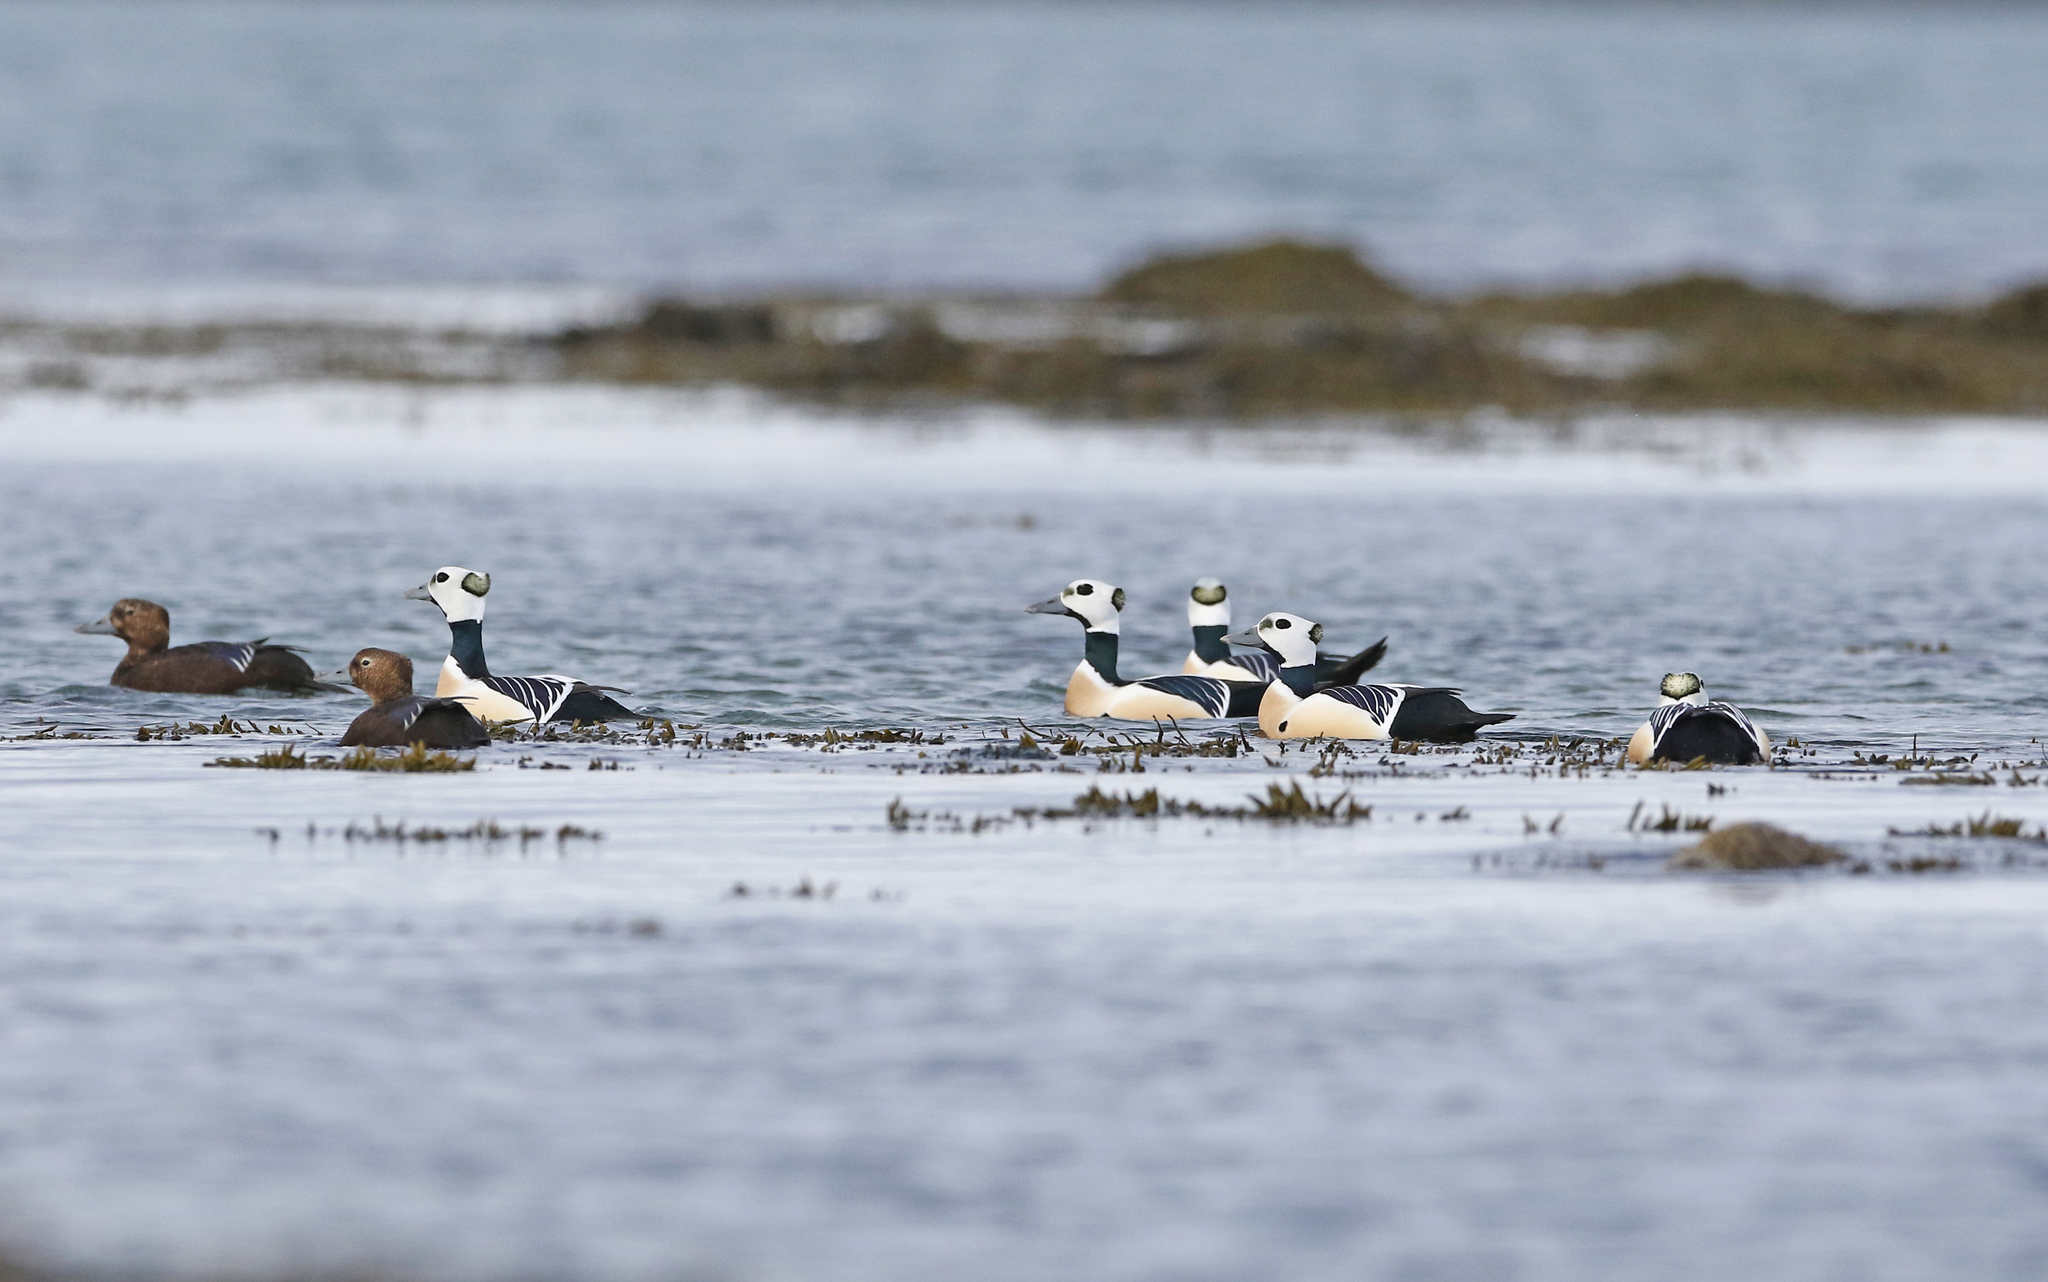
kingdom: Animalia
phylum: Chordata
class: Aves
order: Anseriformes
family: Anatidae
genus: Polysticta
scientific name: Polysticta stelleri
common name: Steller's eider
